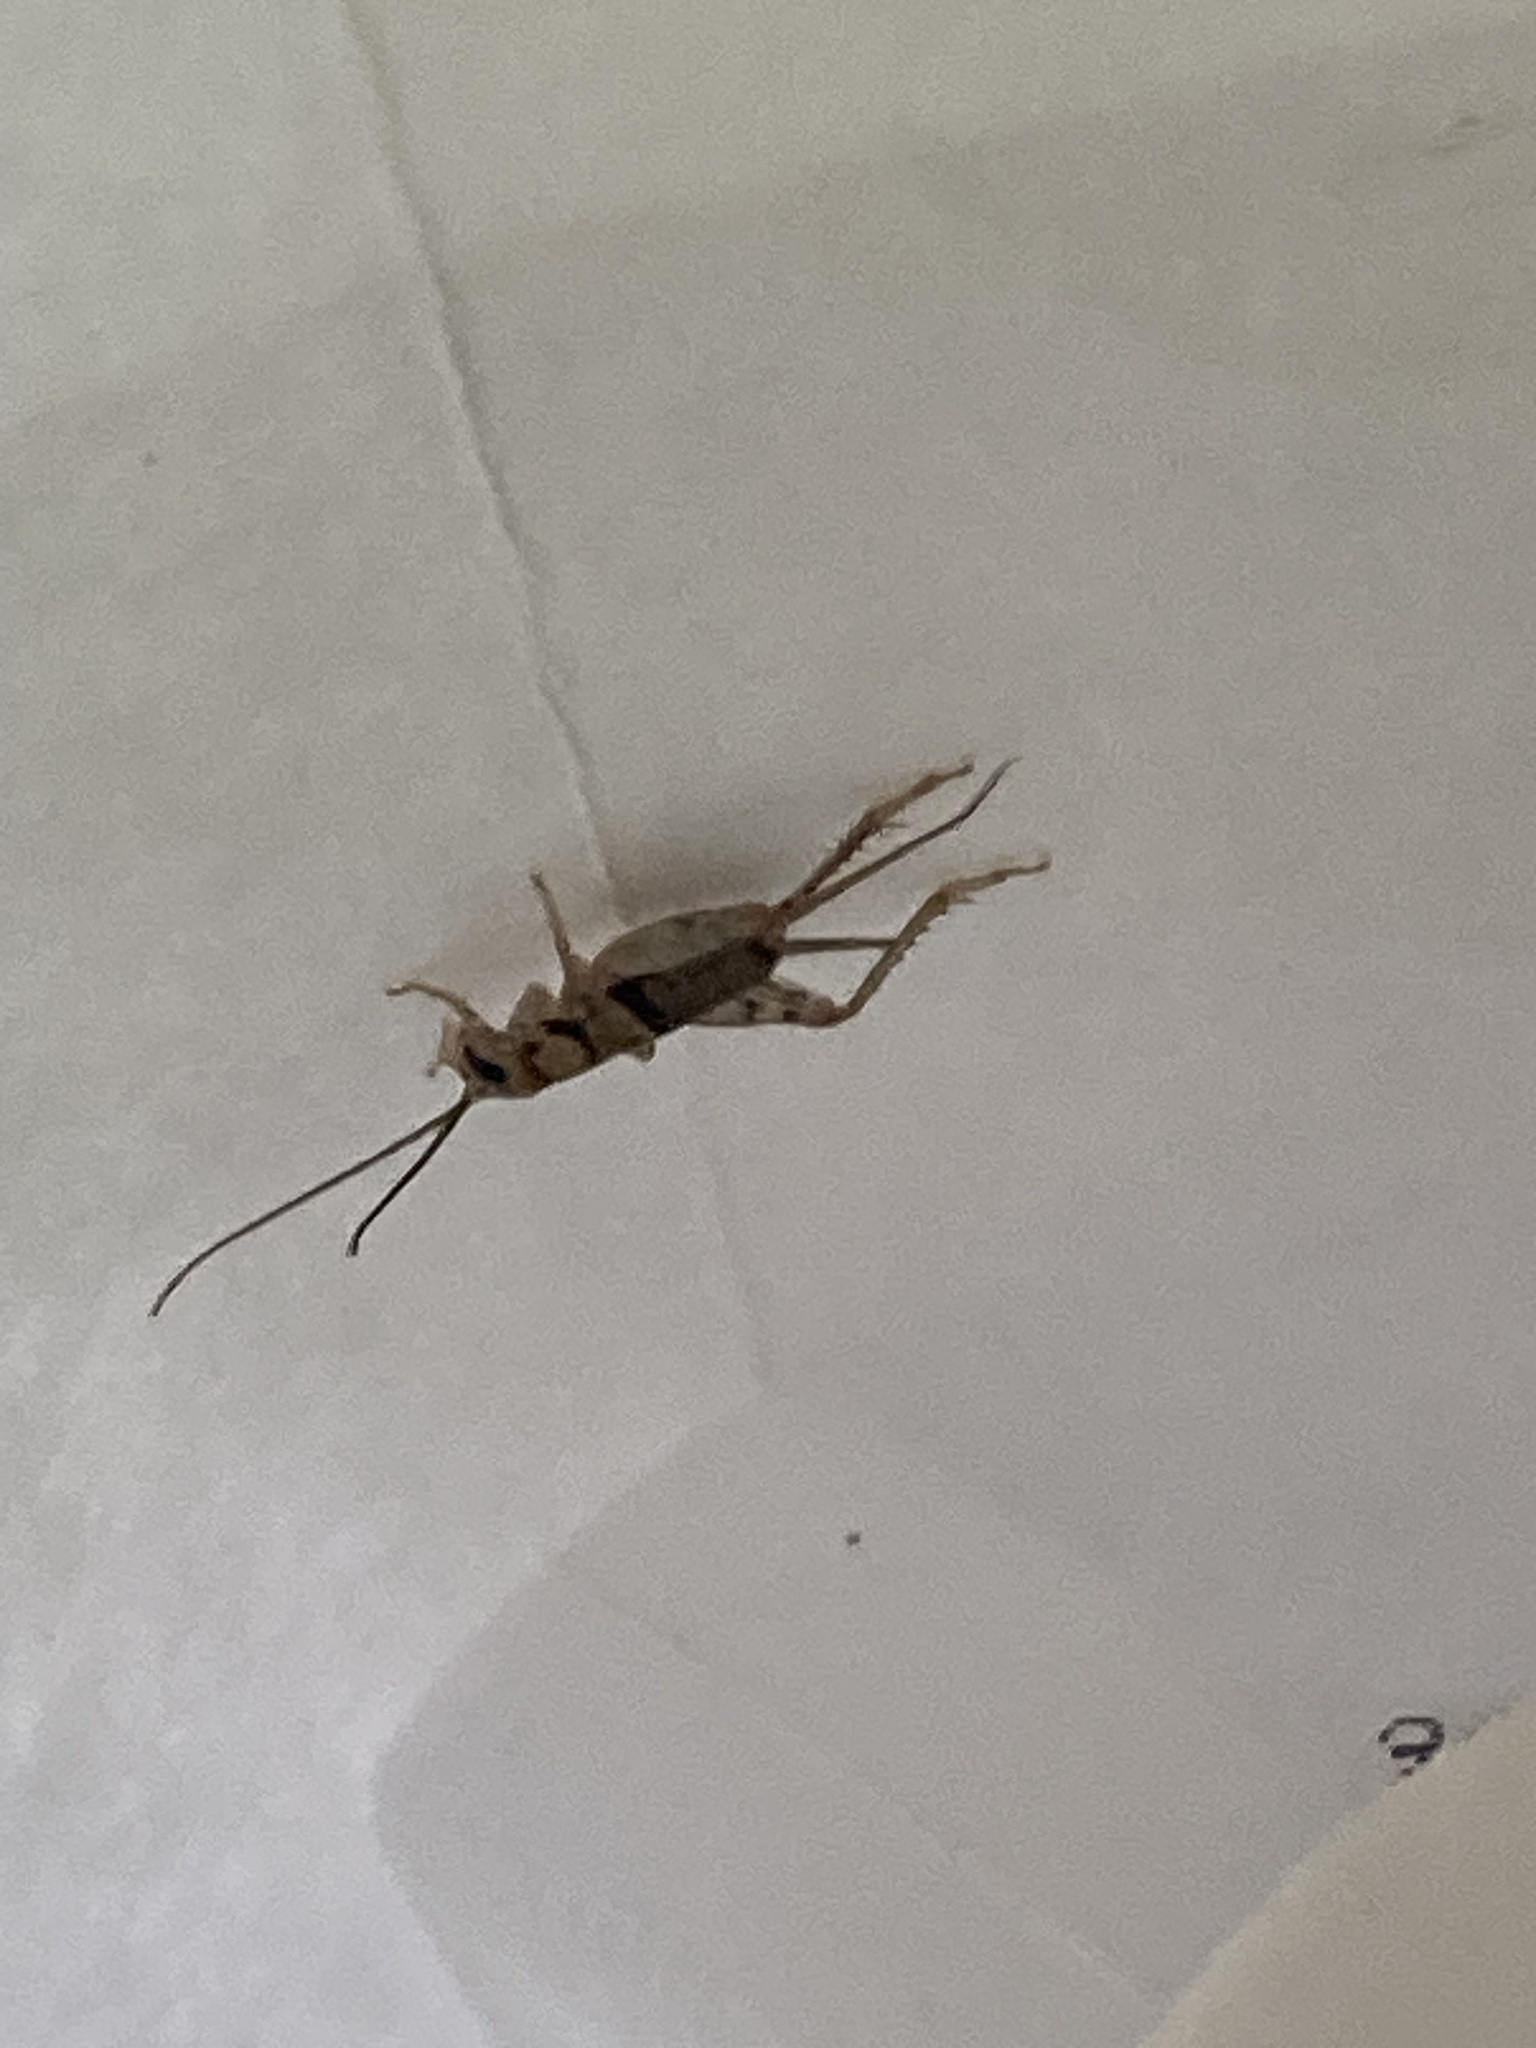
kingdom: Animalia
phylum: Arthropoda
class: Insecta
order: Orthoptera
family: Gryllidae
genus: Gryllodes
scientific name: Gryllodes sigillatus
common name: Tropical house cricket
